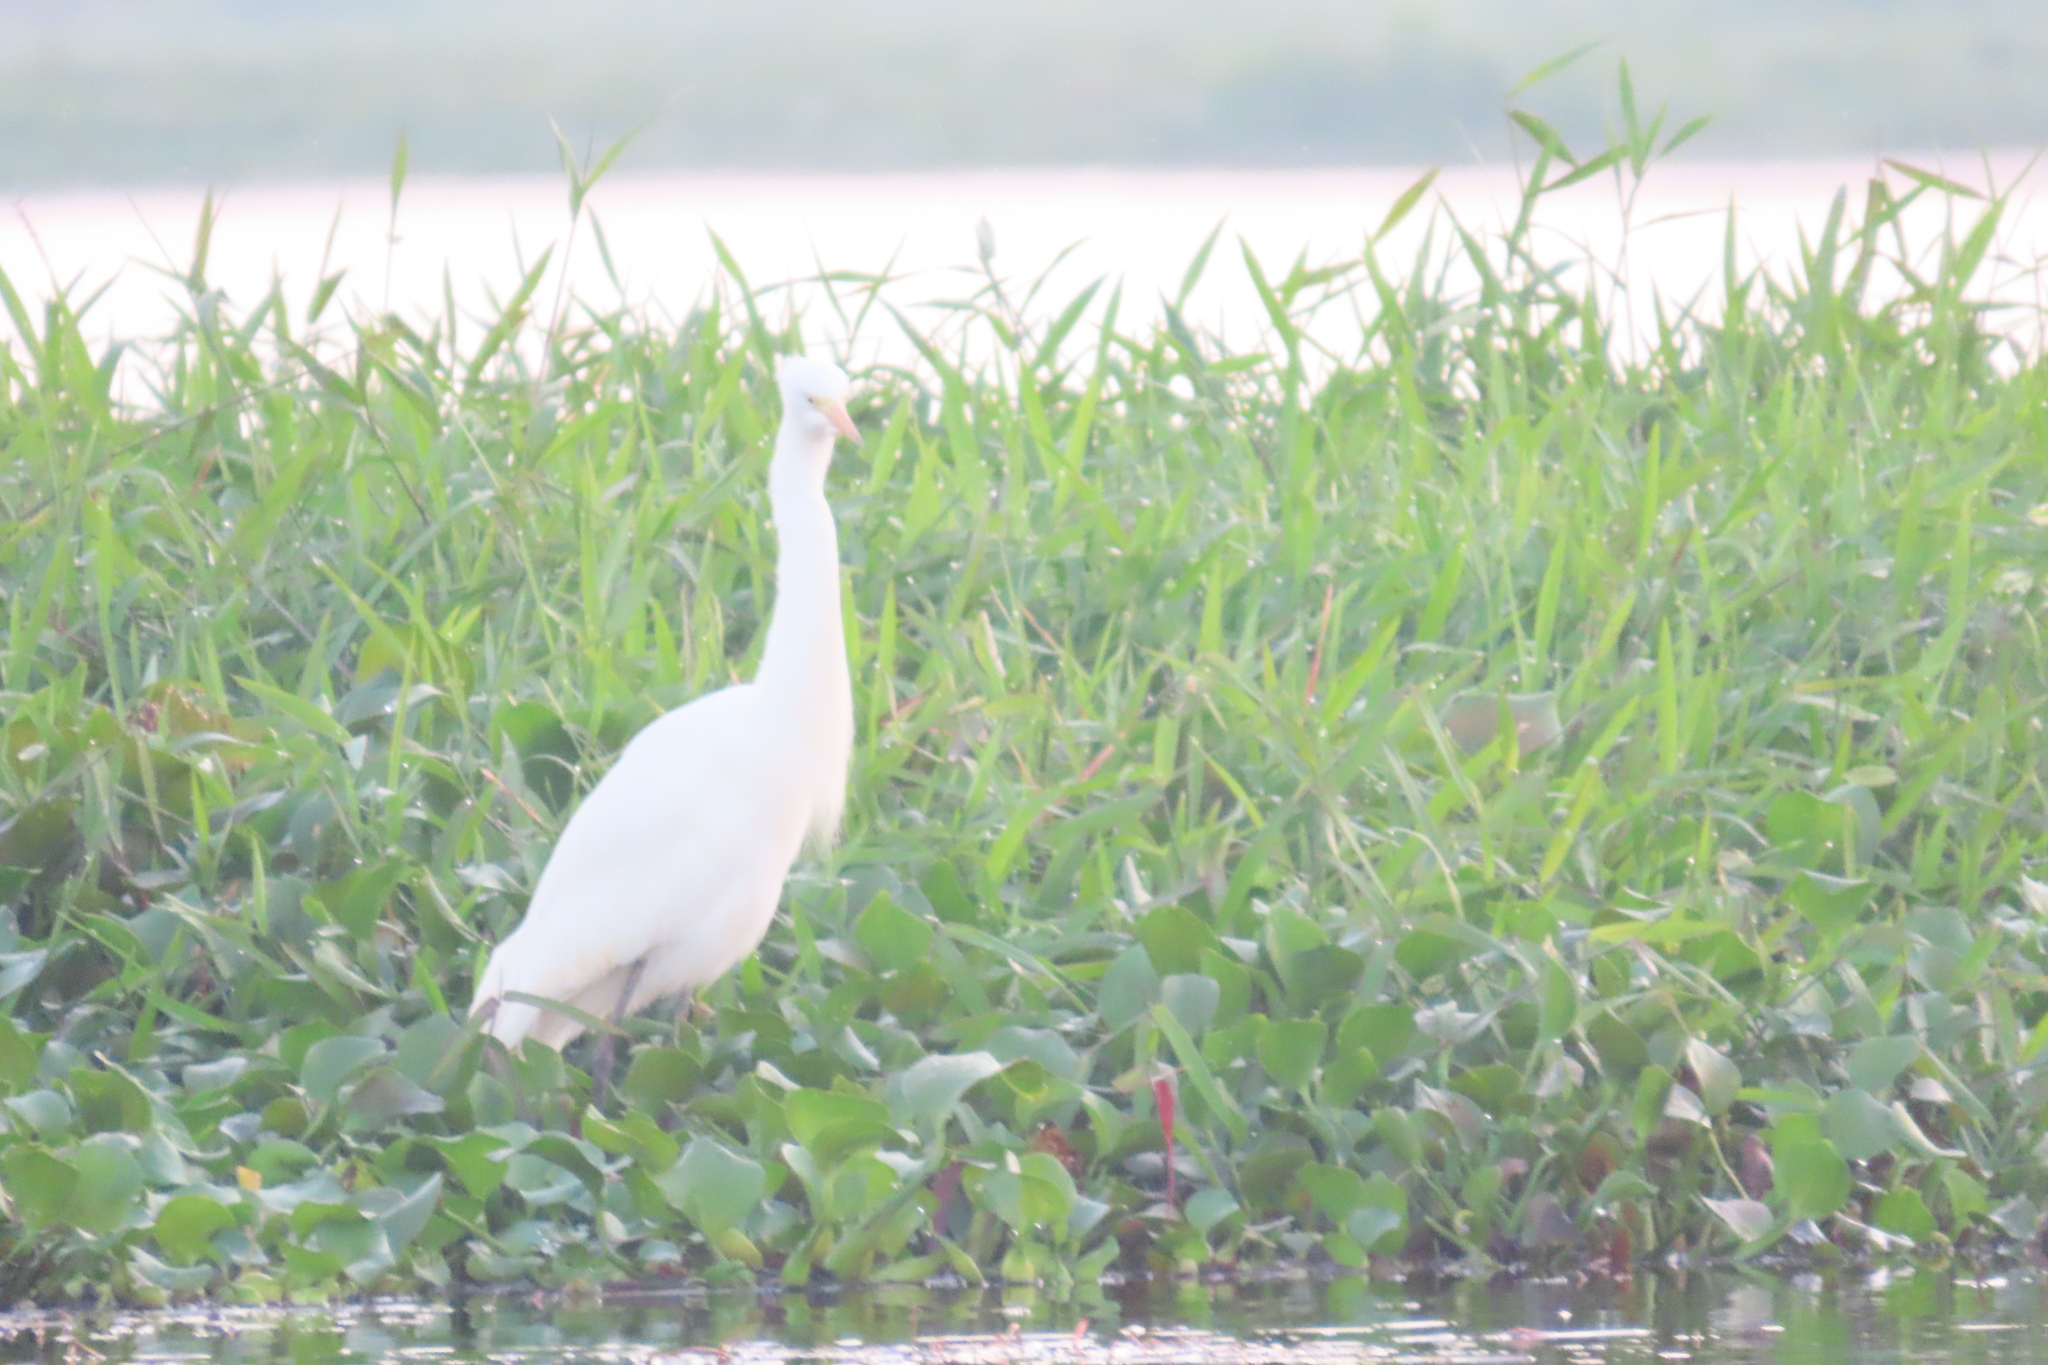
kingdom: Animalia
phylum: Chordata
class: Aves
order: Pelecaniformes
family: Ardeidae
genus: Egretta
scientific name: Egretta intermedia
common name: Intermediate egret
